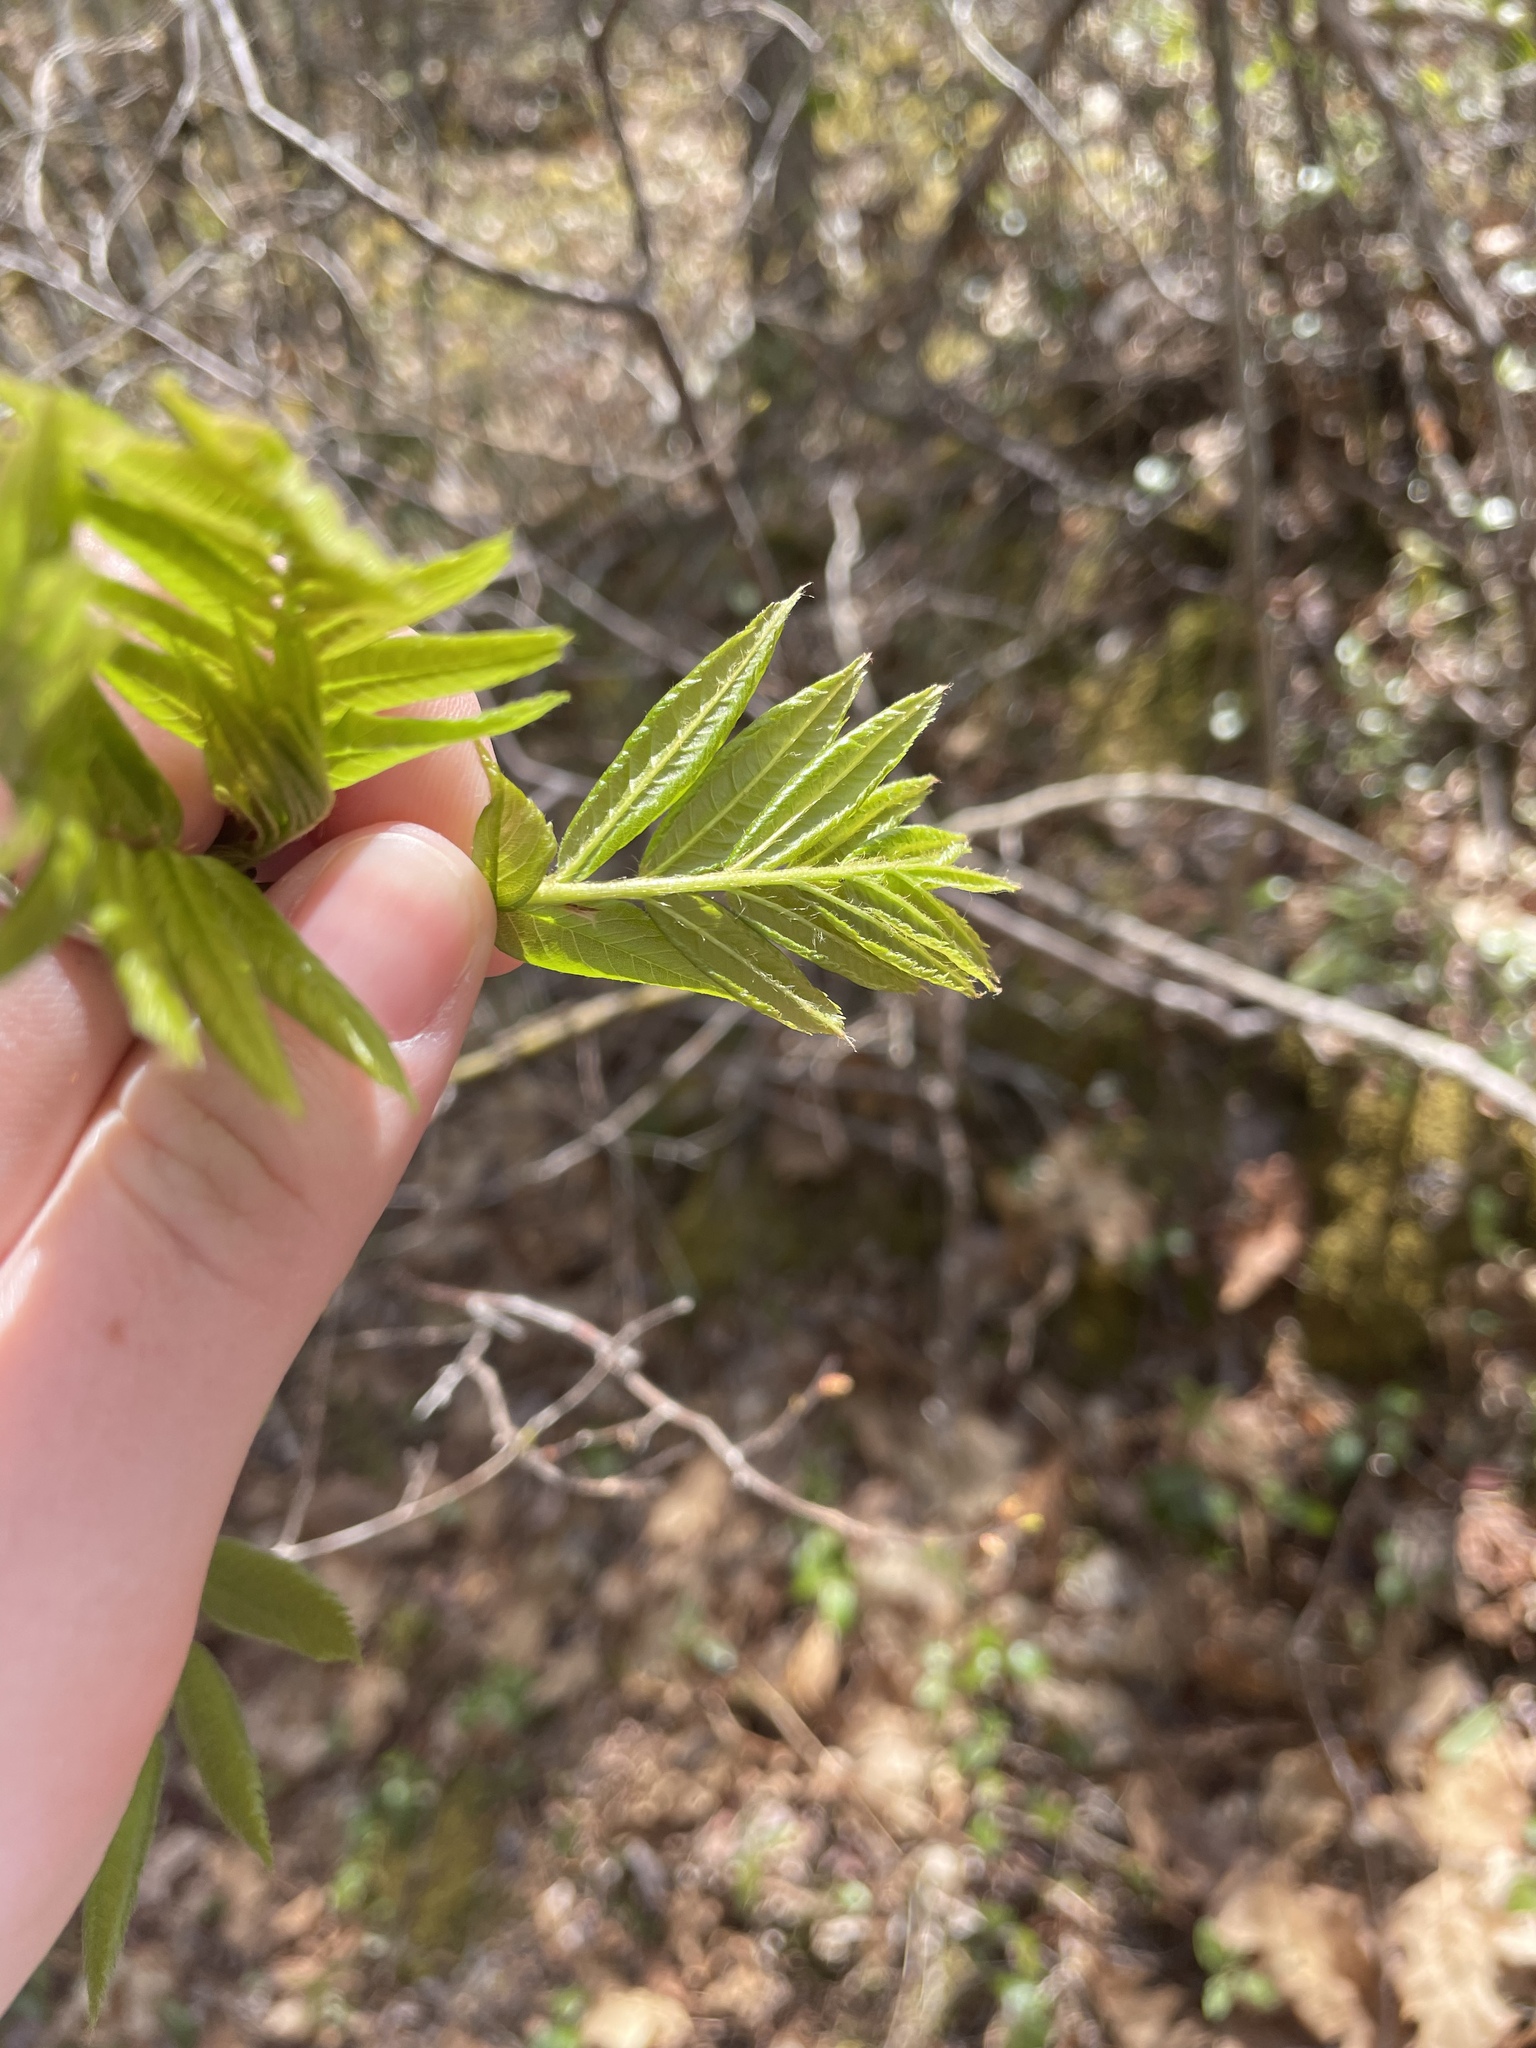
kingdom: Plantae
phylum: Tracheophyta
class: Magnoliopsida
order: Rosales
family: Rosaceae
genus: Sorbus
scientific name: Sorbus americana
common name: American mountain-ash
